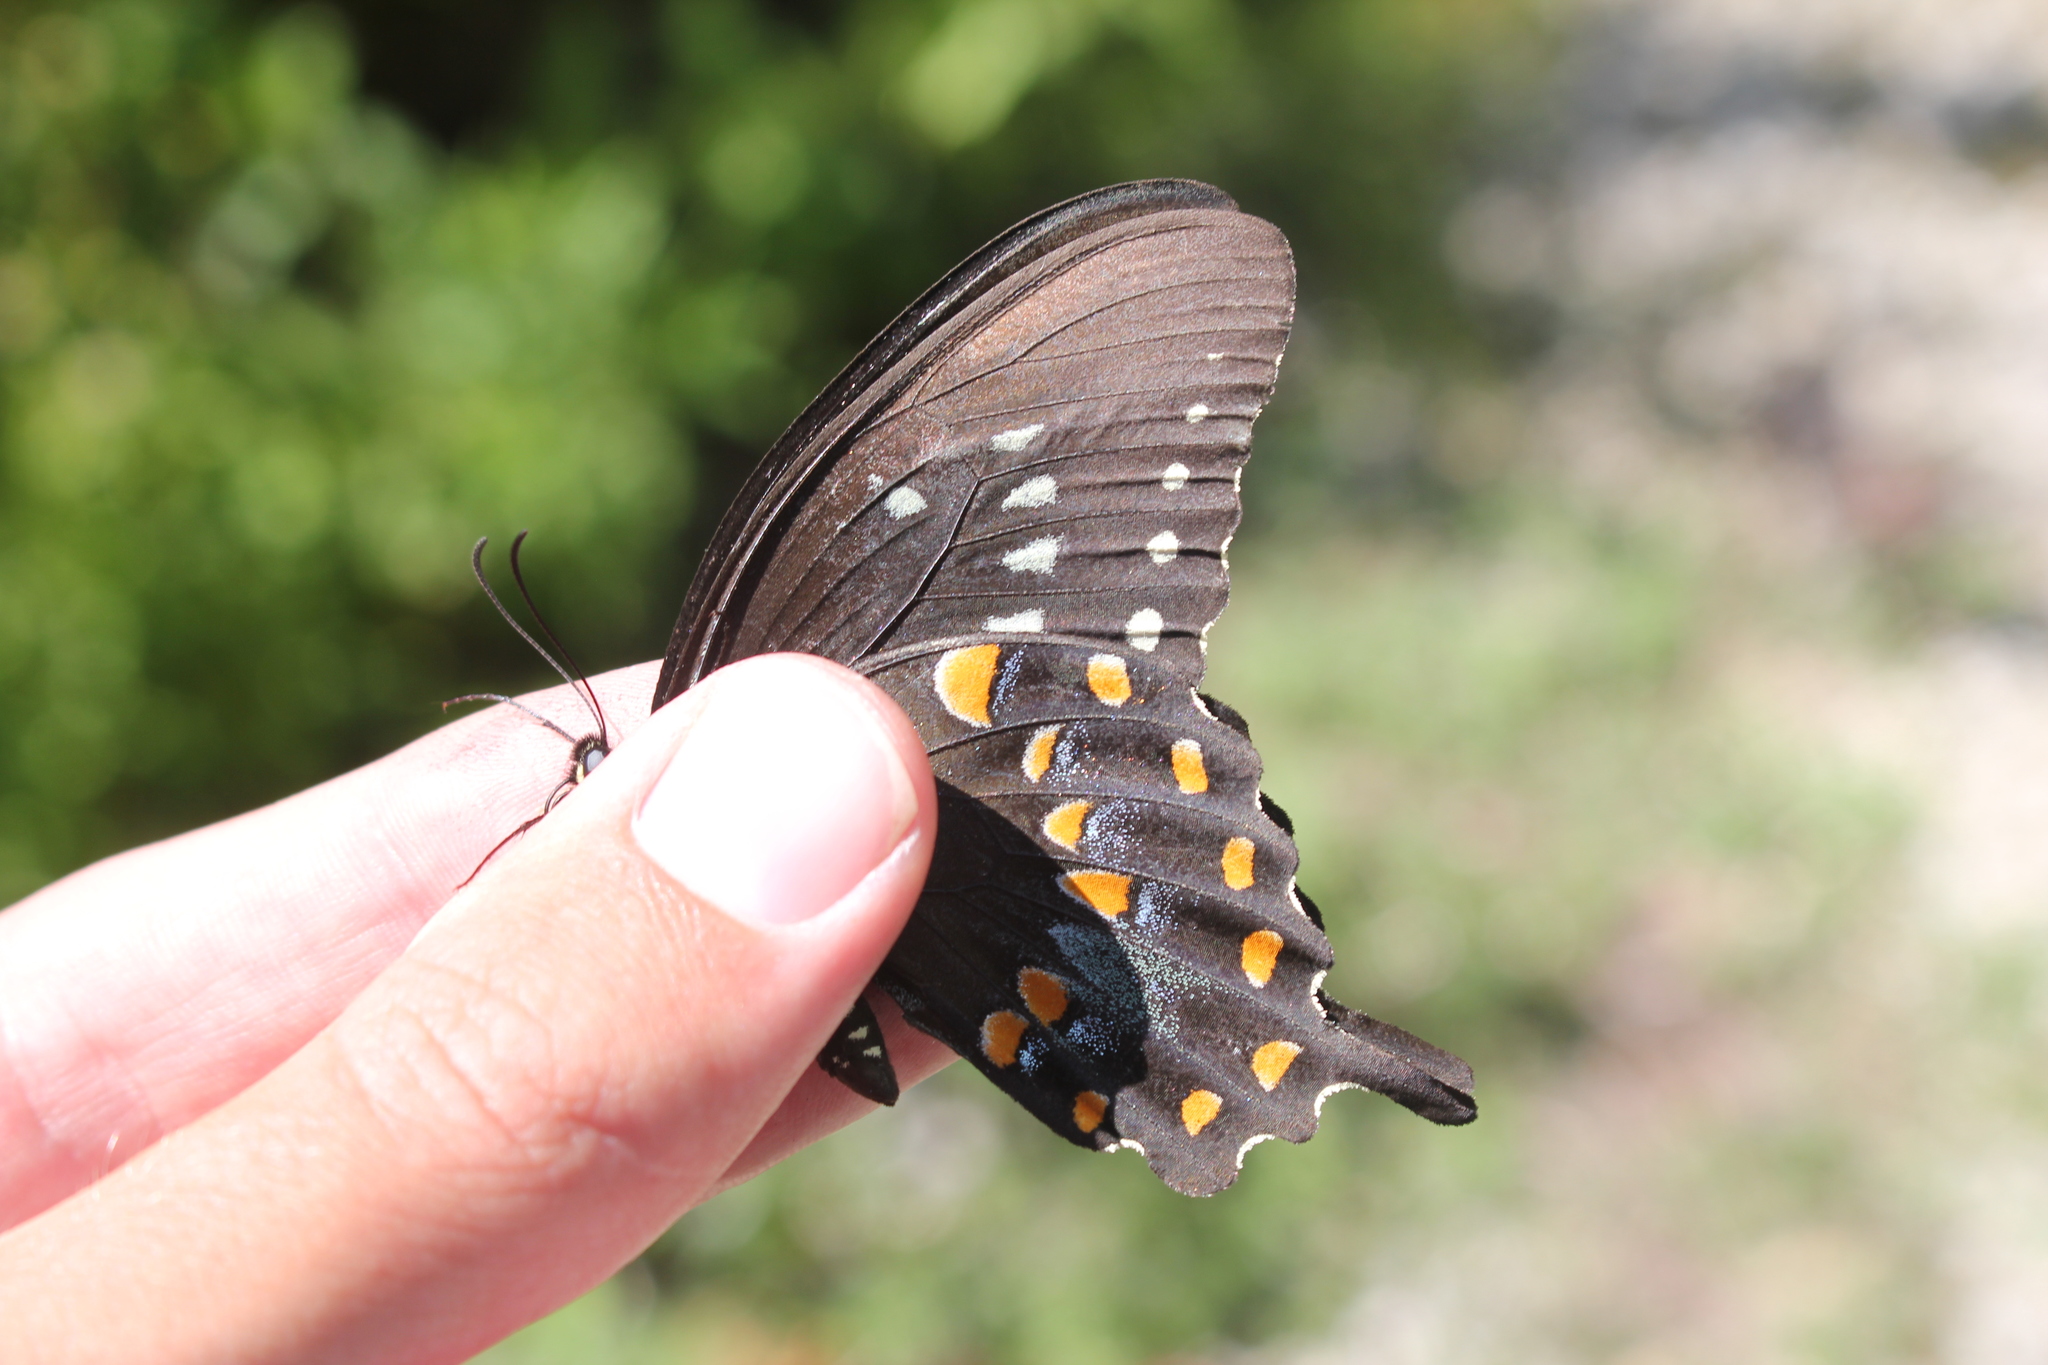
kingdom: Animalia
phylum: Arthropoda
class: Insecta
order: Lepidoptera
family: Papilionidae
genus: Papilio
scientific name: Papilio troilus
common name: Spicebush swallowtail
